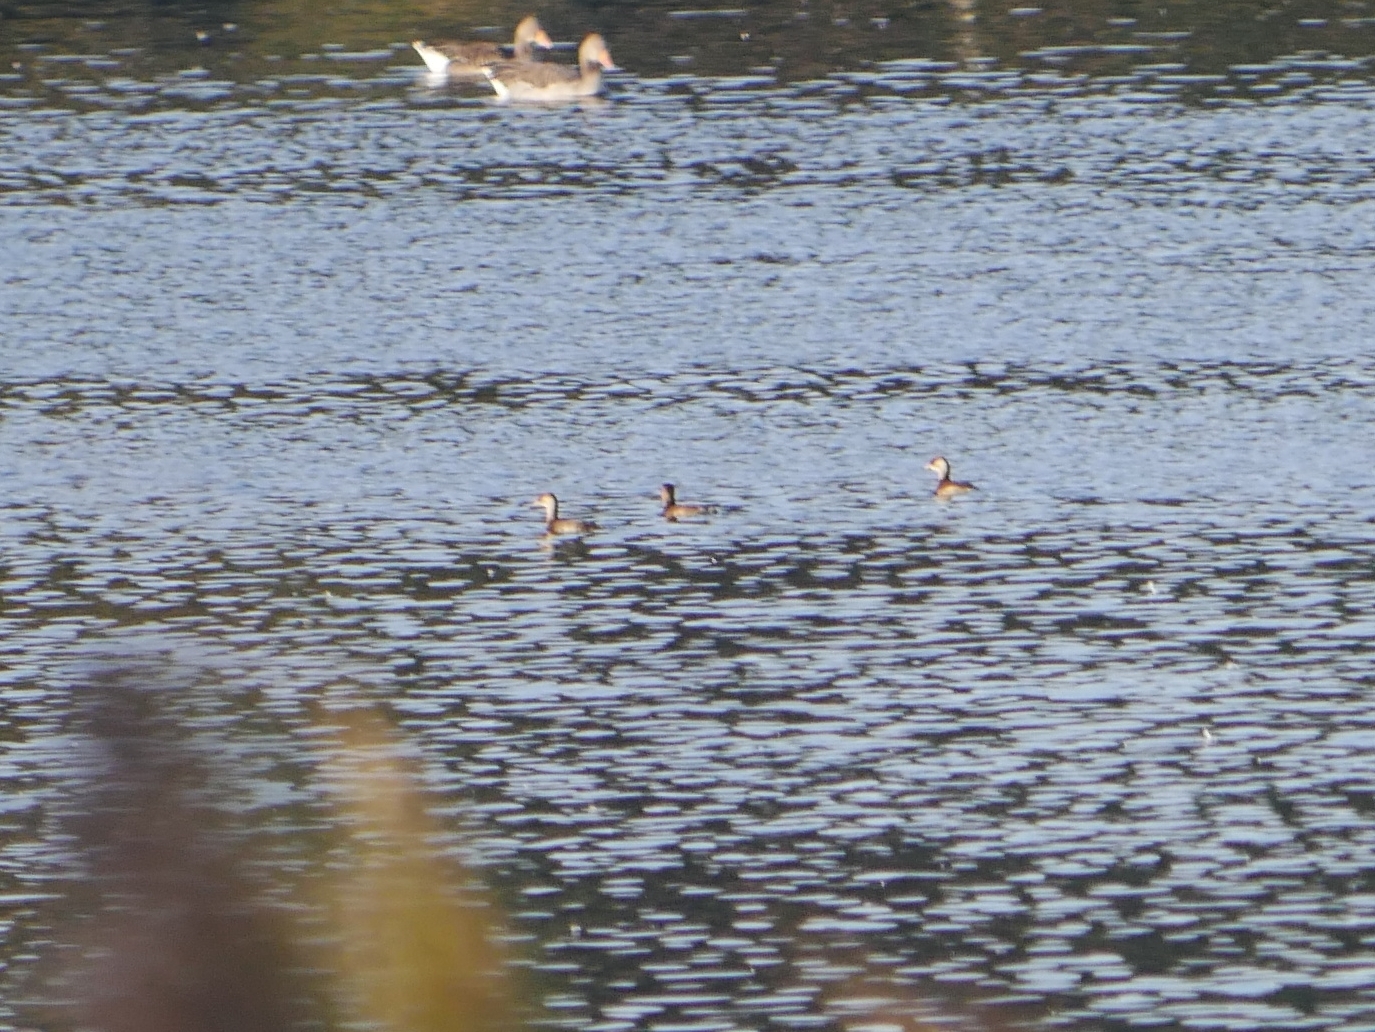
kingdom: Animalia
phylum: Chordata
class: Aves
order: Podicipediformes
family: Podicipedidae
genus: Tachybaptus
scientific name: Tachybaptus ruficollis
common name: Little grebe
